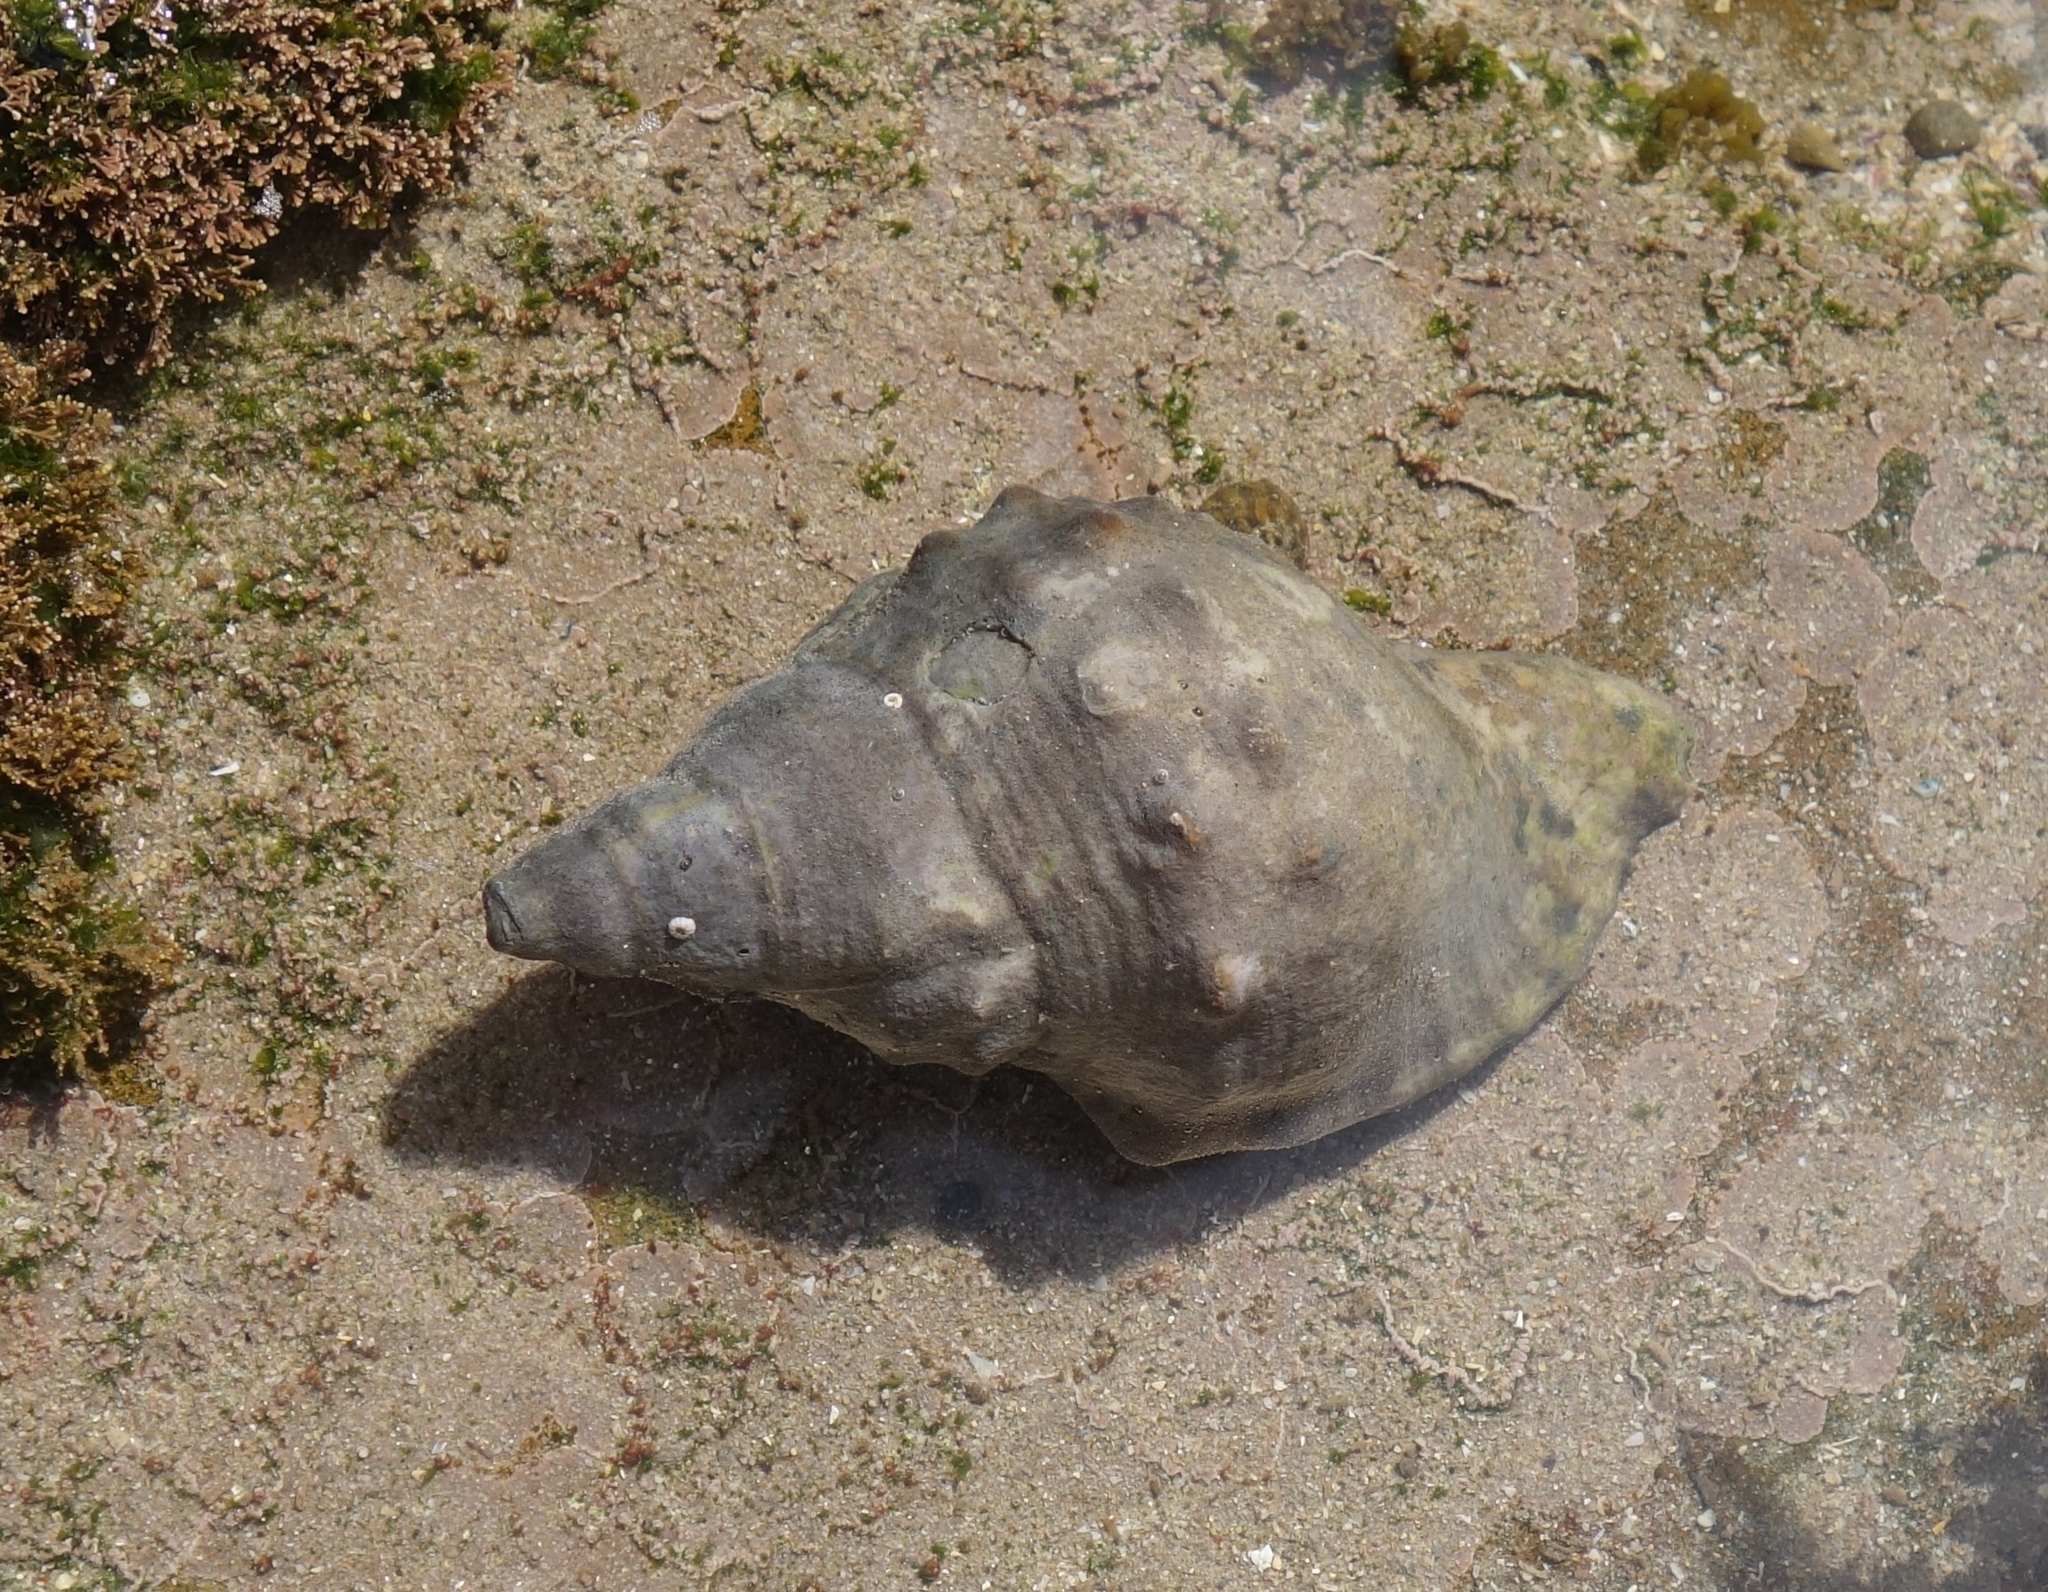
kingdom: Animalia
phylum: Mollusca
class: Gastropoda
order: Littorinimorpha
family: Charoniidae
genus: Charonia
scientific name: Charonia lampas
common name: Knobbed triton
